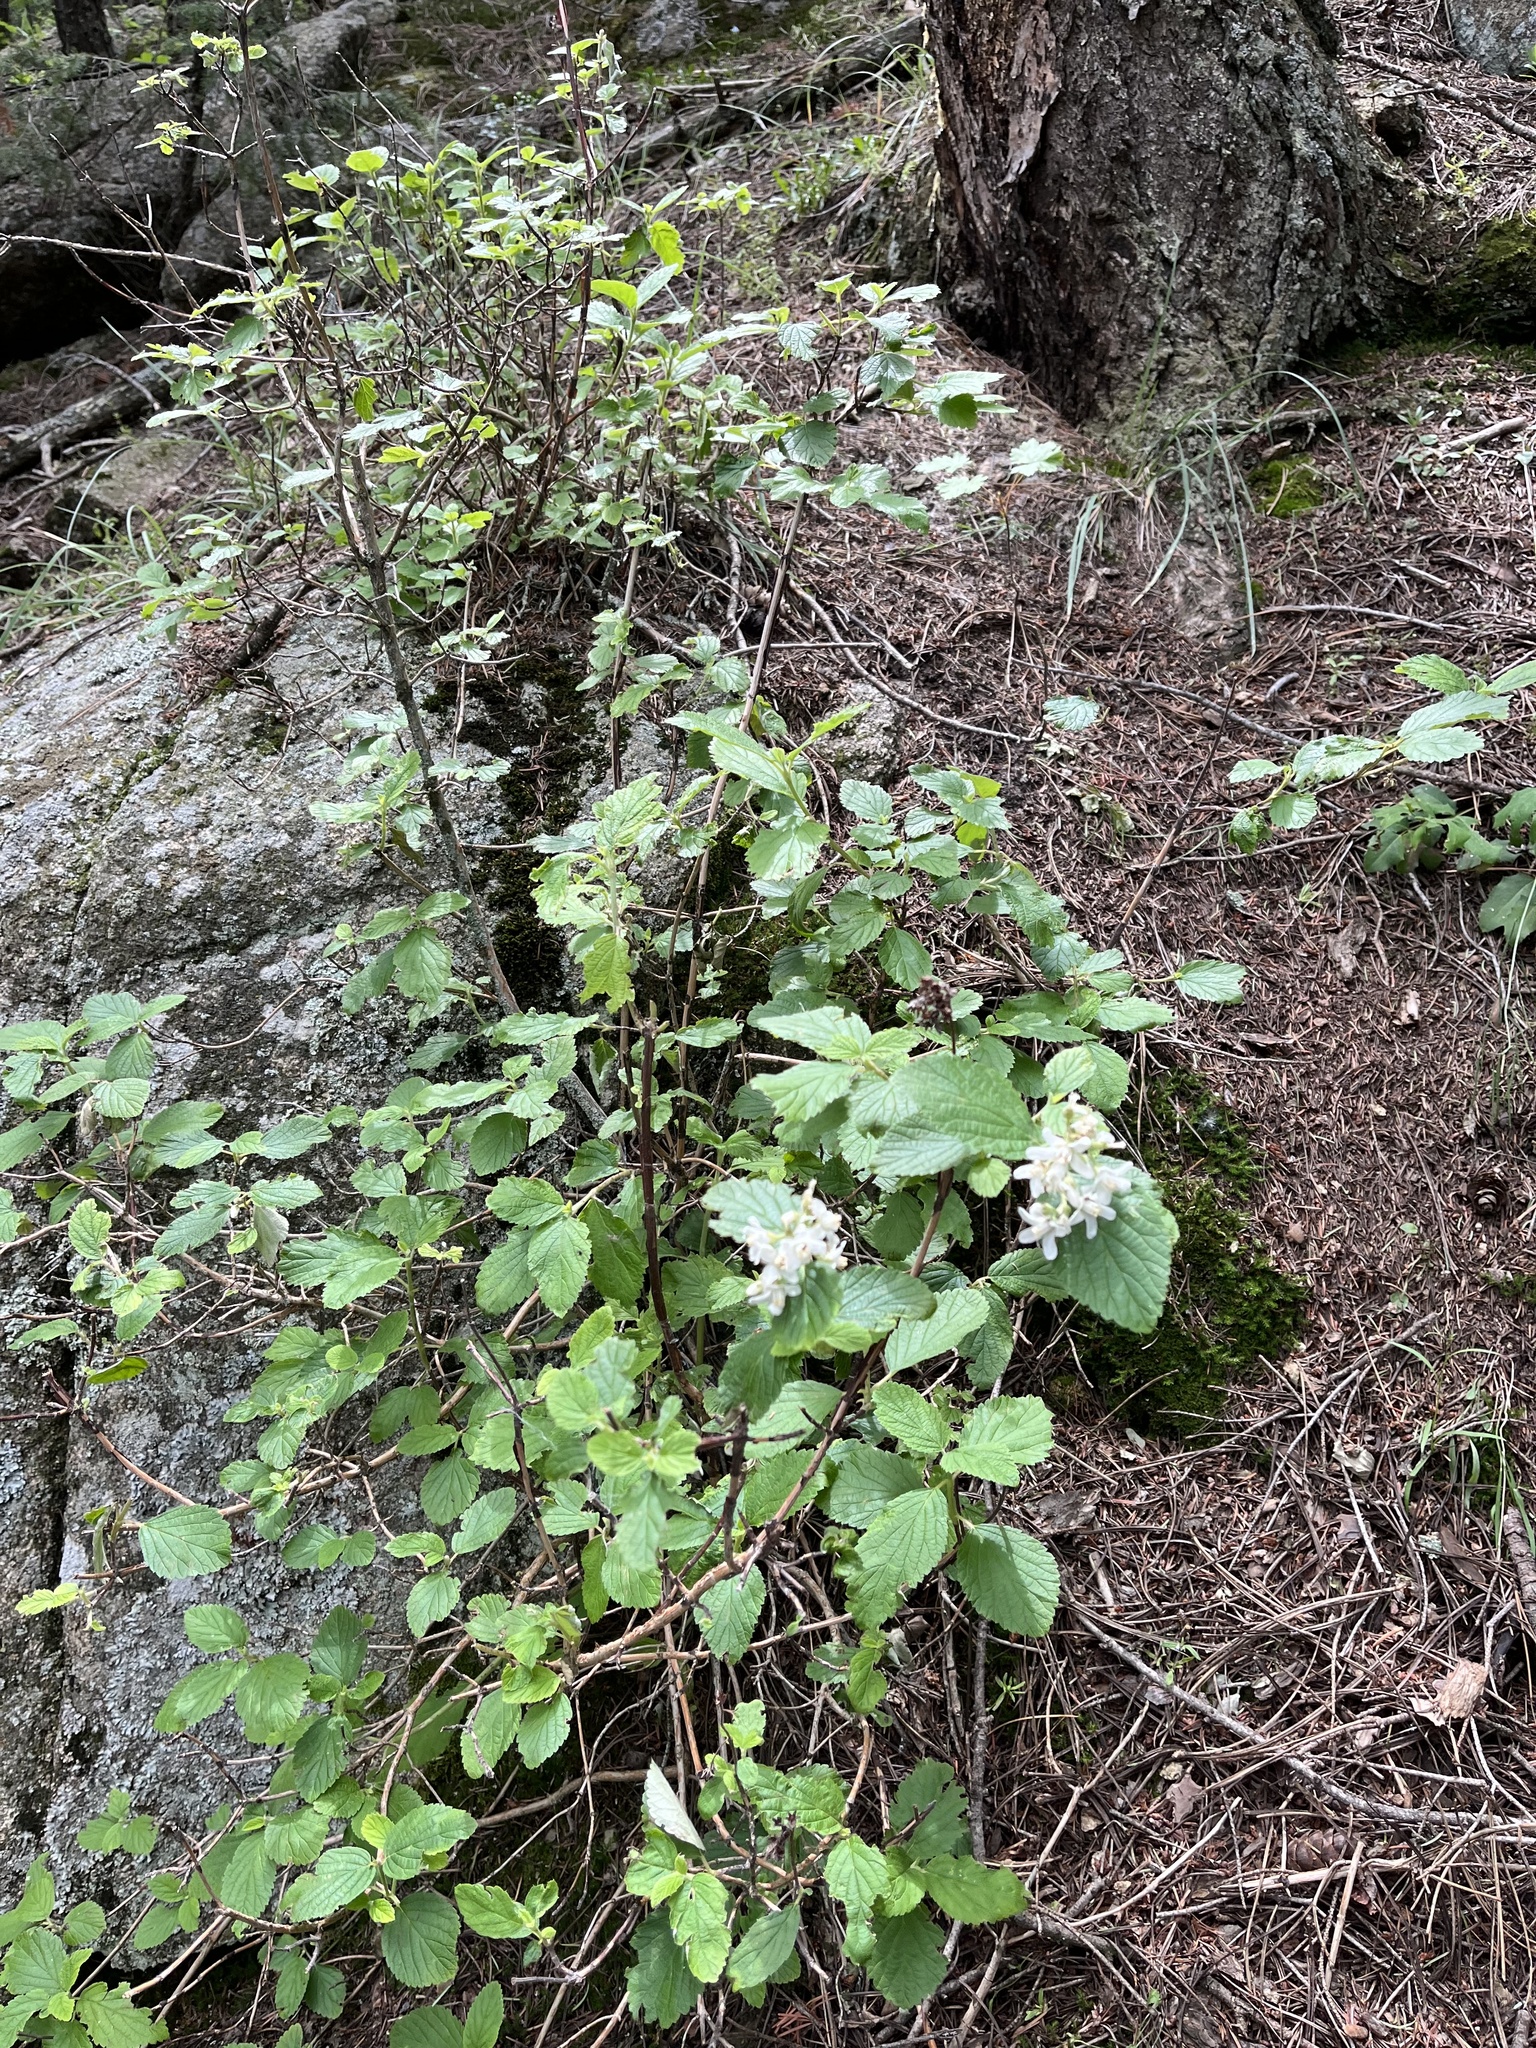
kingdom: Plantae
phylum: Tracheophyta
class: Magnoliopsida
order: Cornales
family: Hydrangeaceae
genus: Jamesia
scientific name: Jamesia americana
